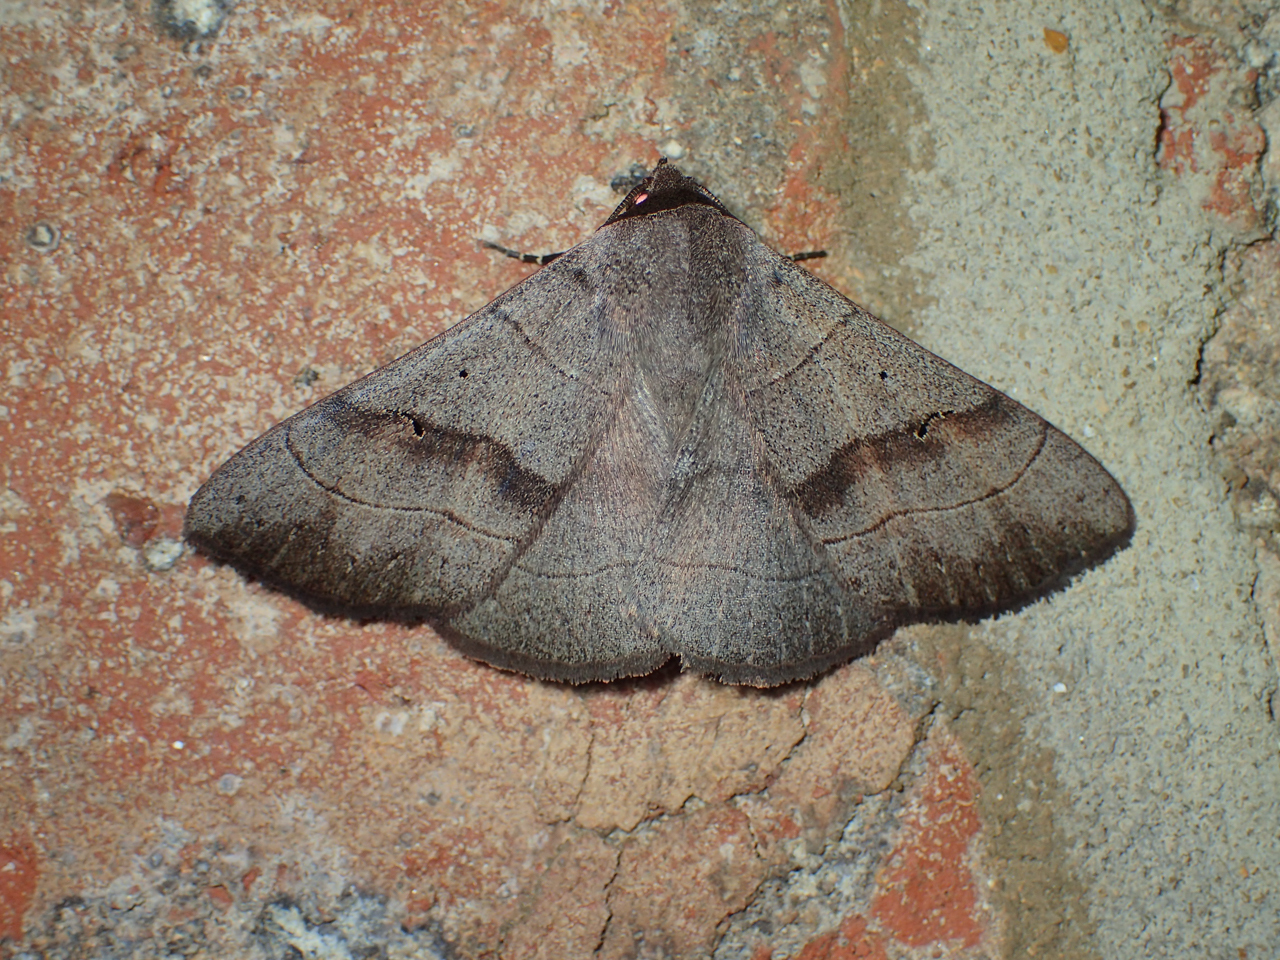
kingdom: Animalia
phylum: Arthropoda
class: Insecta
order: Lepidoptera
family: Erebidae
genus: Panopoda
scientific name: Panopoda carneicosta
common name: Brown panopoda moth
